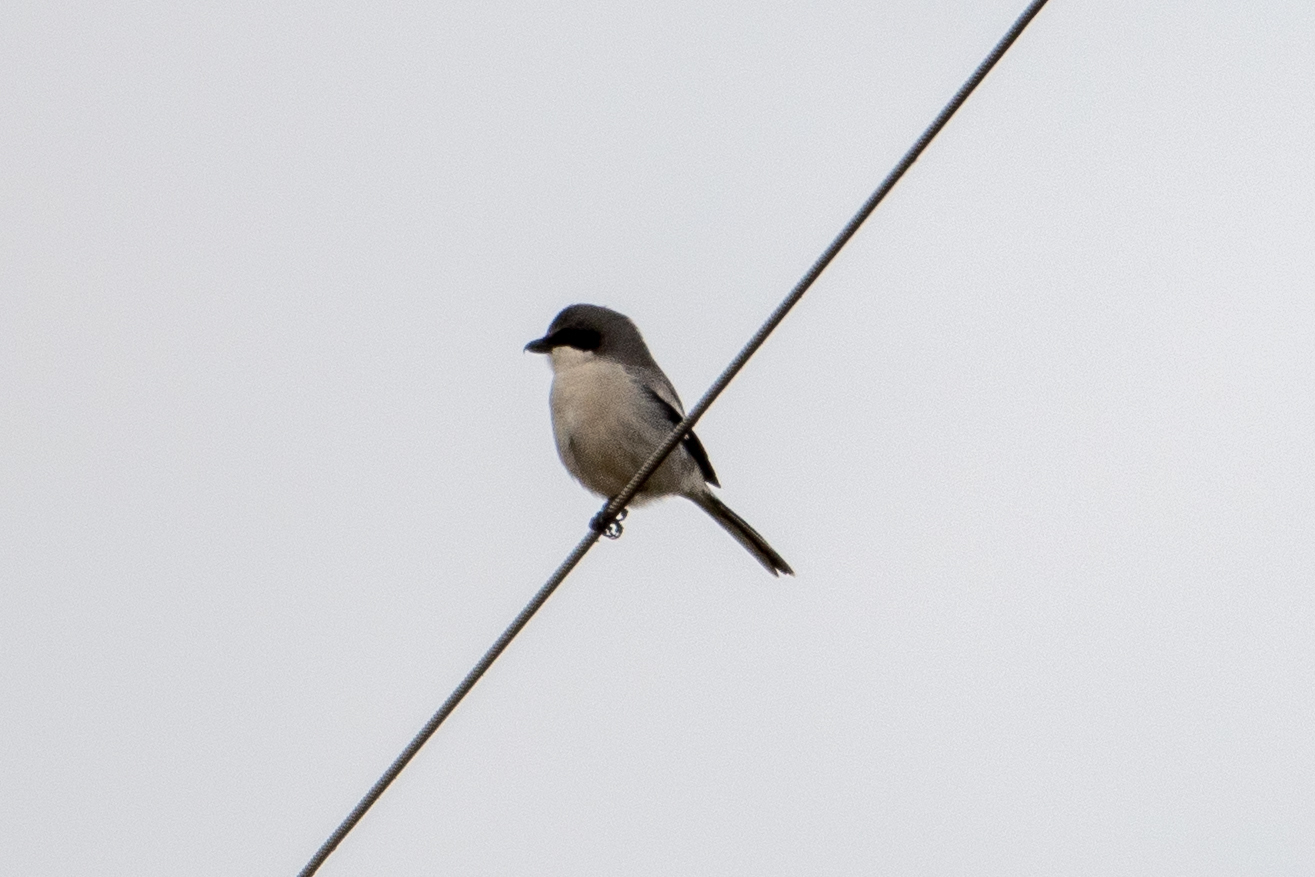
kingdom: Animalia
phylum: Chordata
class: Aves
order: Passeriformes
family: Laniidae
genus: Lanius
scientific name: Lanius ludovicianus
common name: Loggerhead shrike
